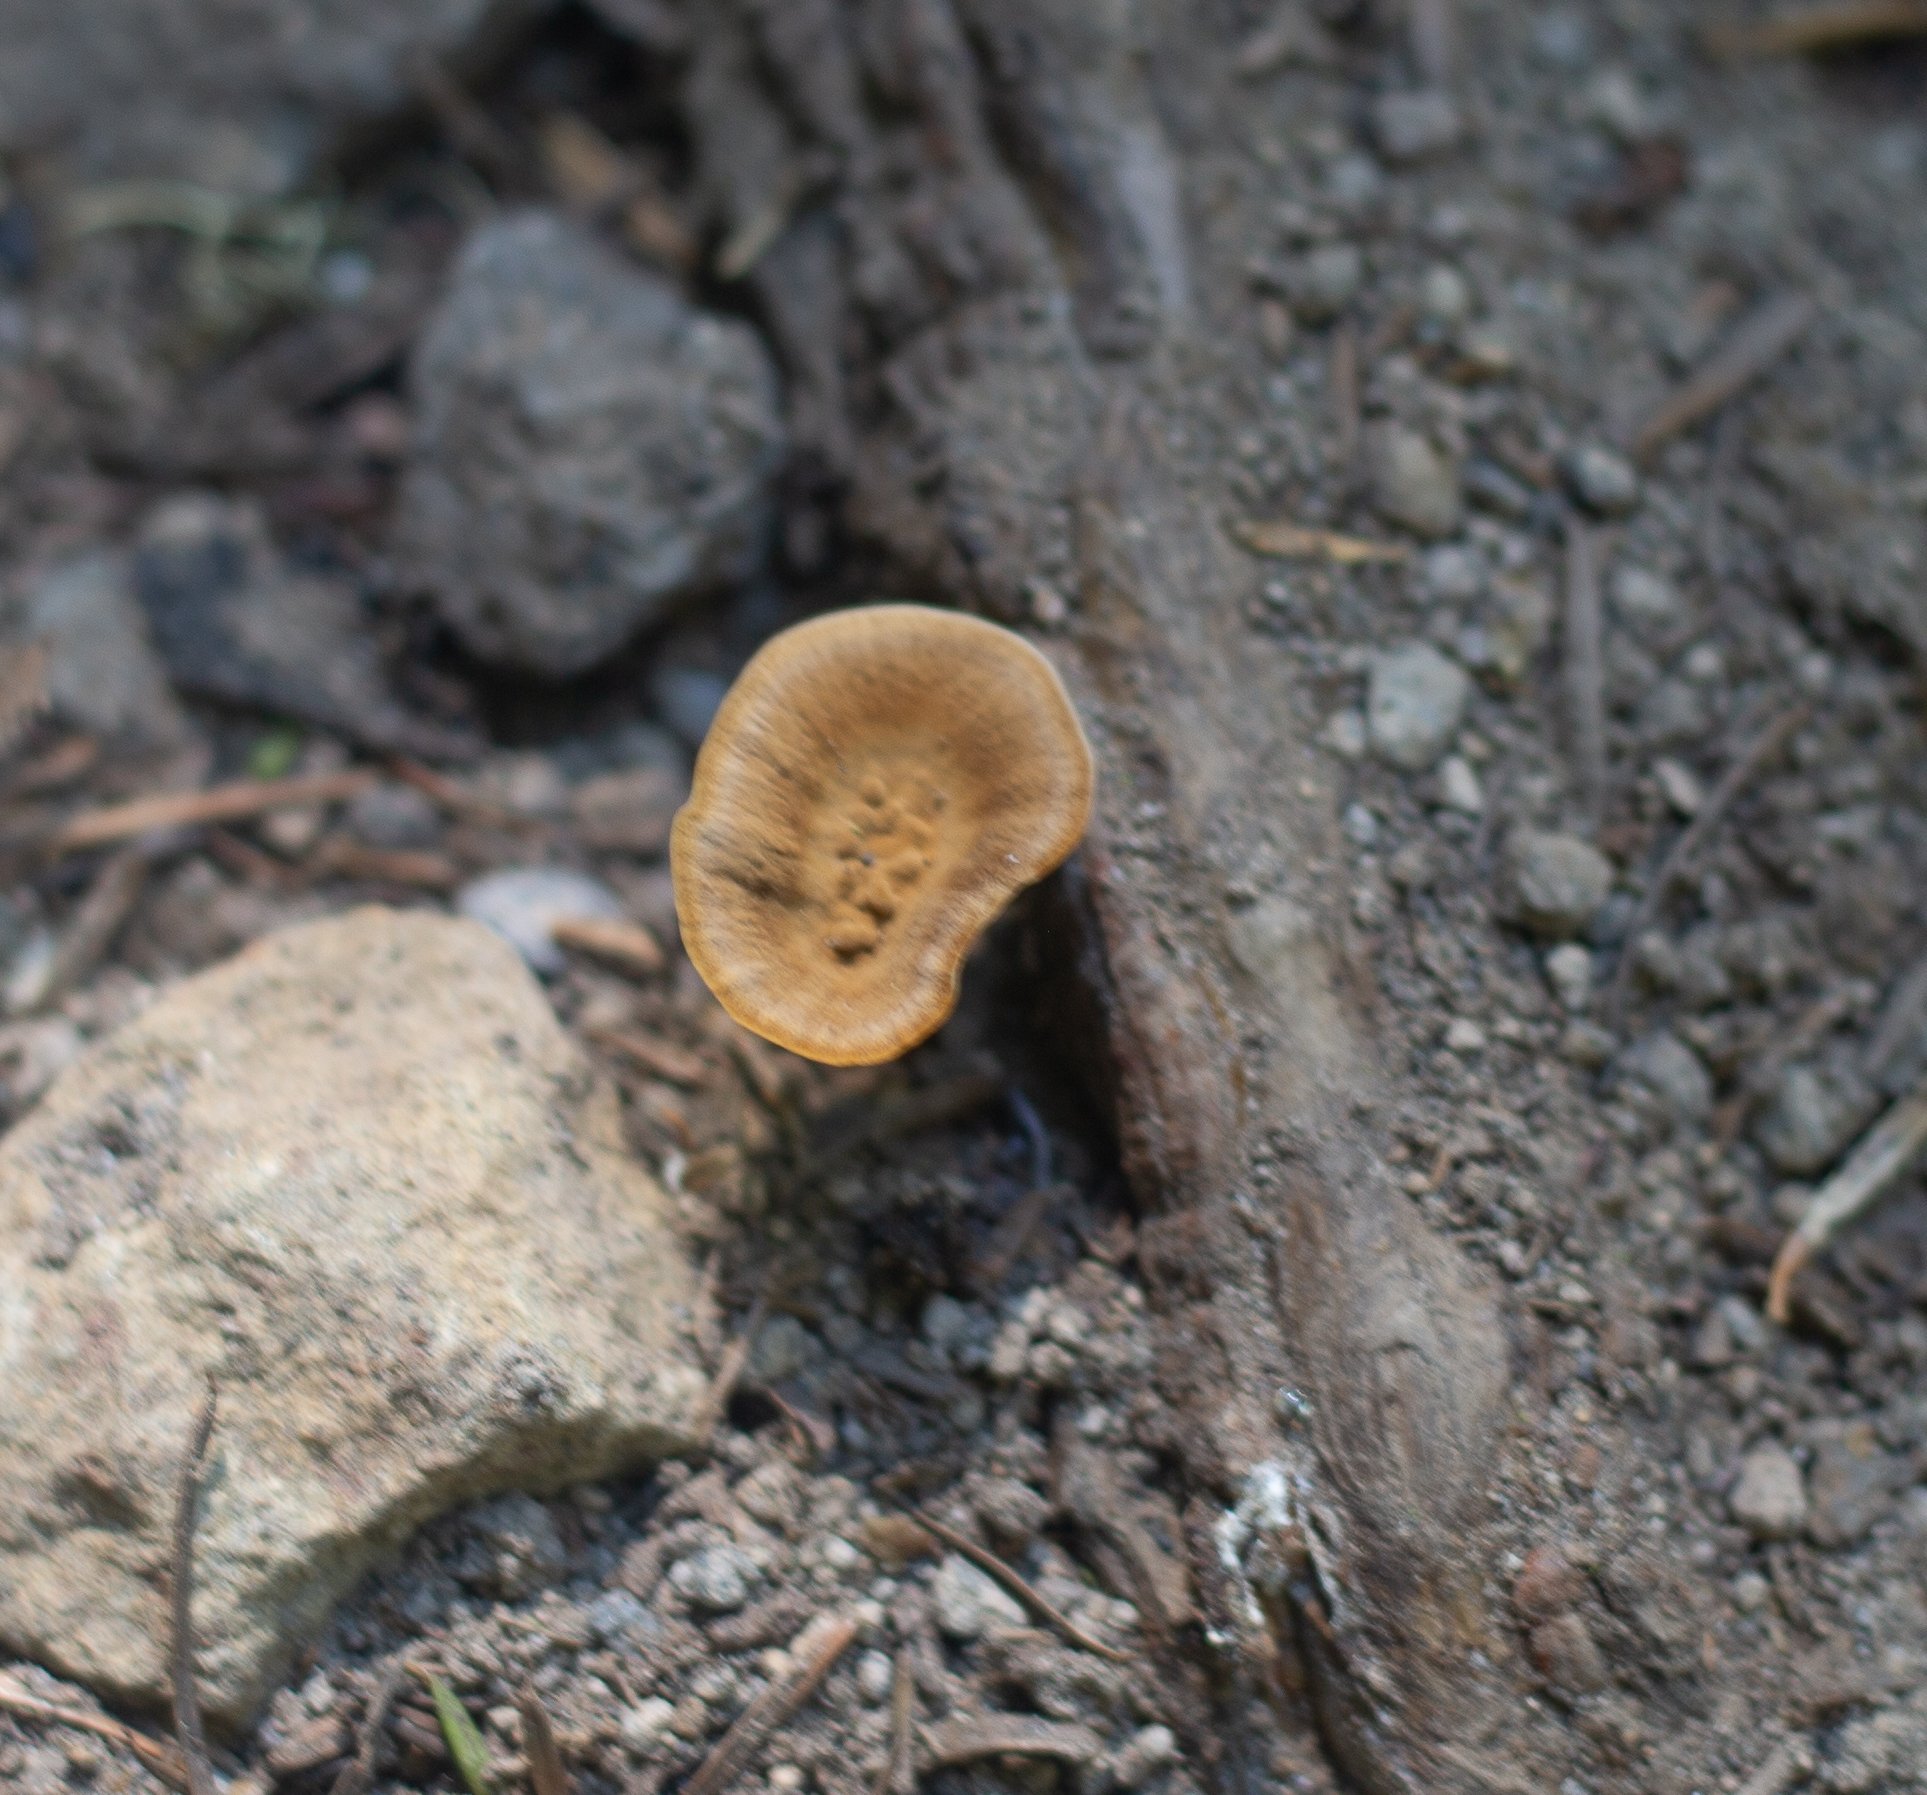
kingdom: Fungi
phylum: Basidiomycota
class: Agaricomycetes
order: Hymenochaetales
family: Hymenochaetaceae
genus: Coltricia
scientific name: Coltricia perennis
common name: Tiger's eye
